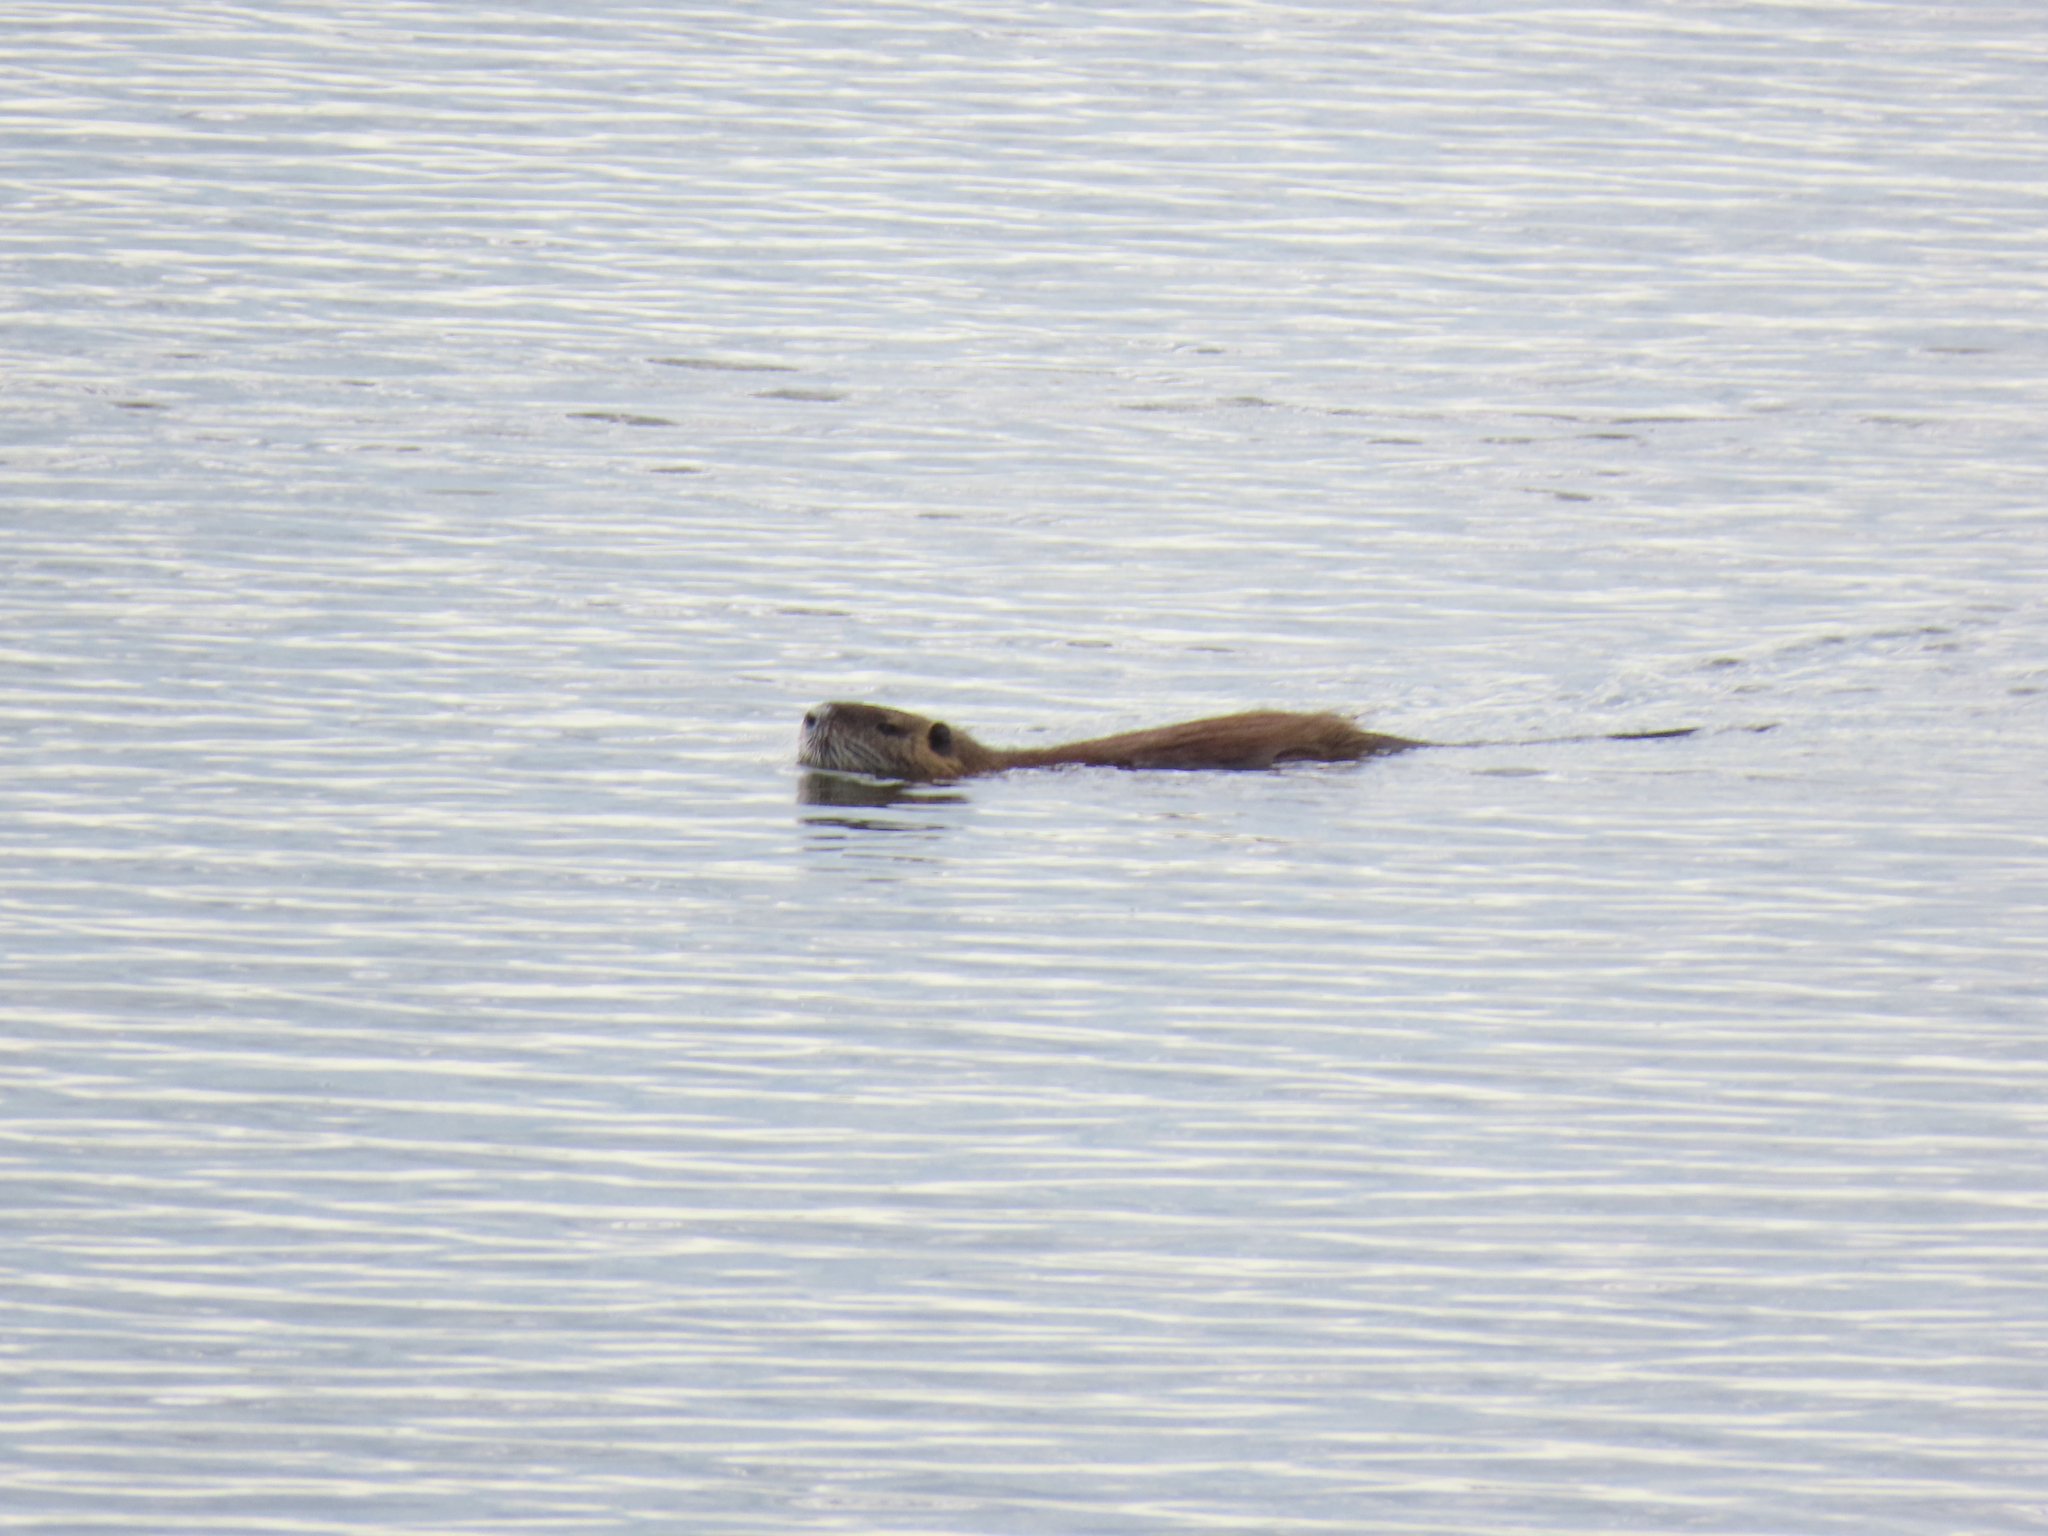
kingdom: Animalia
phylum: Chordata
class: Mammalia
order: Rodentia
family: Myocastoridae
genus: Myocastor
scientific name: Myocastor coypus
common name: Coypu
